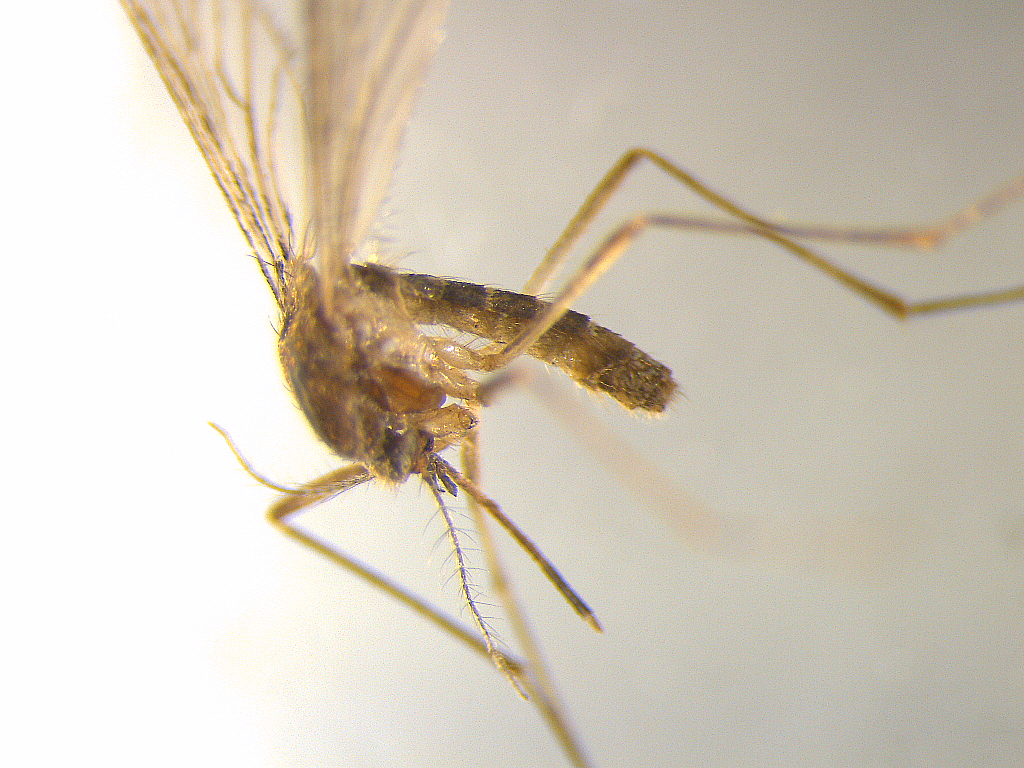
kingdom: Animalia
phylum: Arthropoda
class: Insecta
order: Diptera
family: Culicidae
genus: Culex
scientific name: Culex quinquefasciatus
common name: Southern house mosquito
